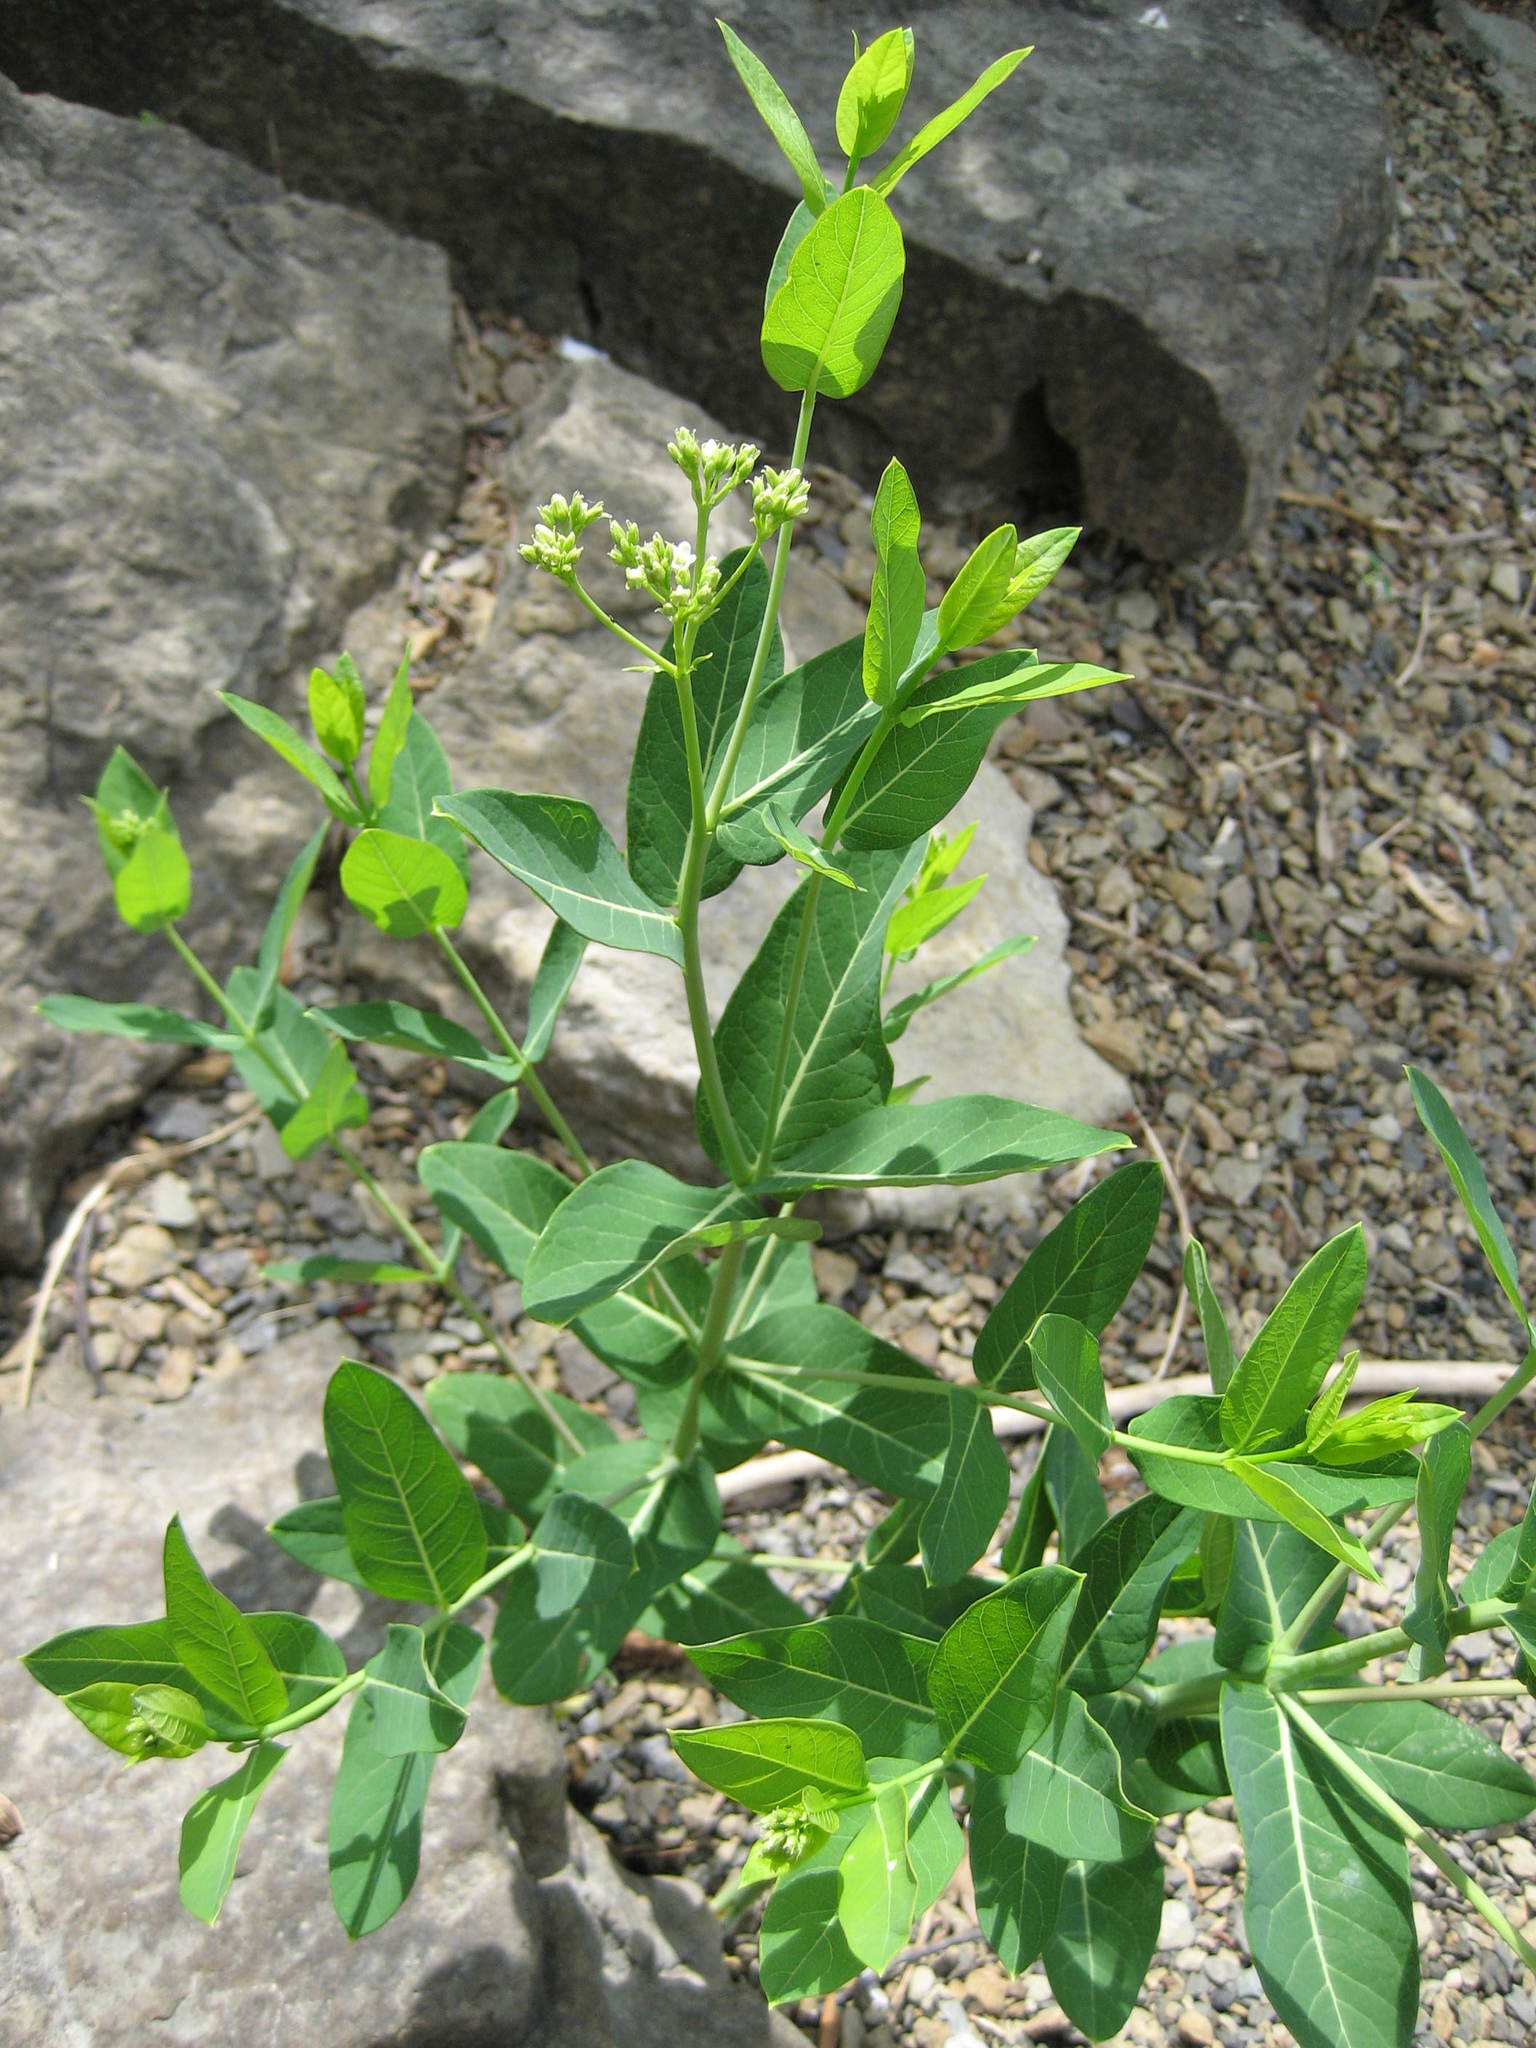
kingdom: Plantae
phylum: Tracheophyta
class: Magnoliopsida
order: Gentianales
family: Apocynaceae
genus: Apocynum
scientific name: Apocynum cannabinum
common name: Hemp dogbane
